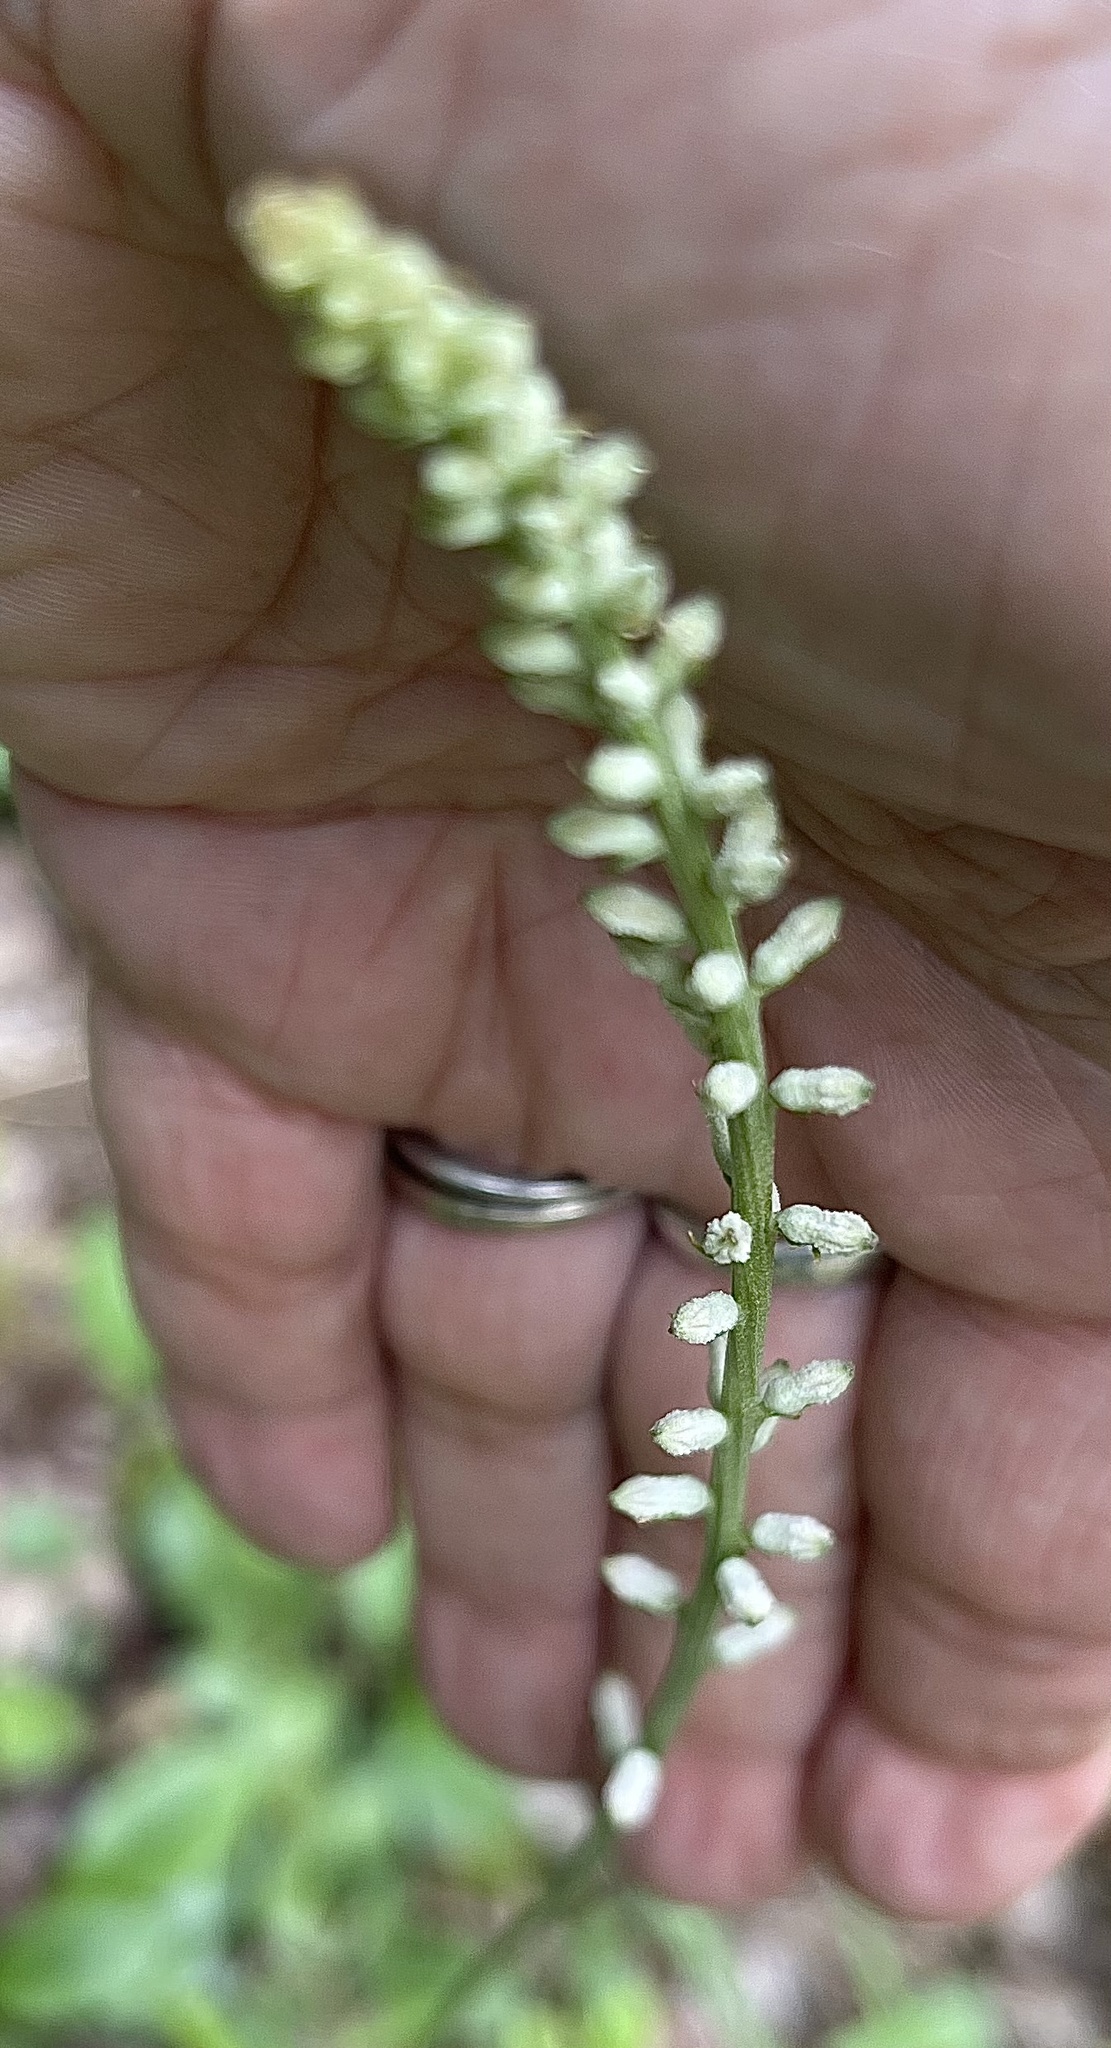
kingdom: Plantae
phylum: Tracheophyta
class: Liliopsida
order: Dioscoreales
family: Nartheciaceae
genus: Aletris
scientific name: Aletris farinosa
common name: Colicroot
